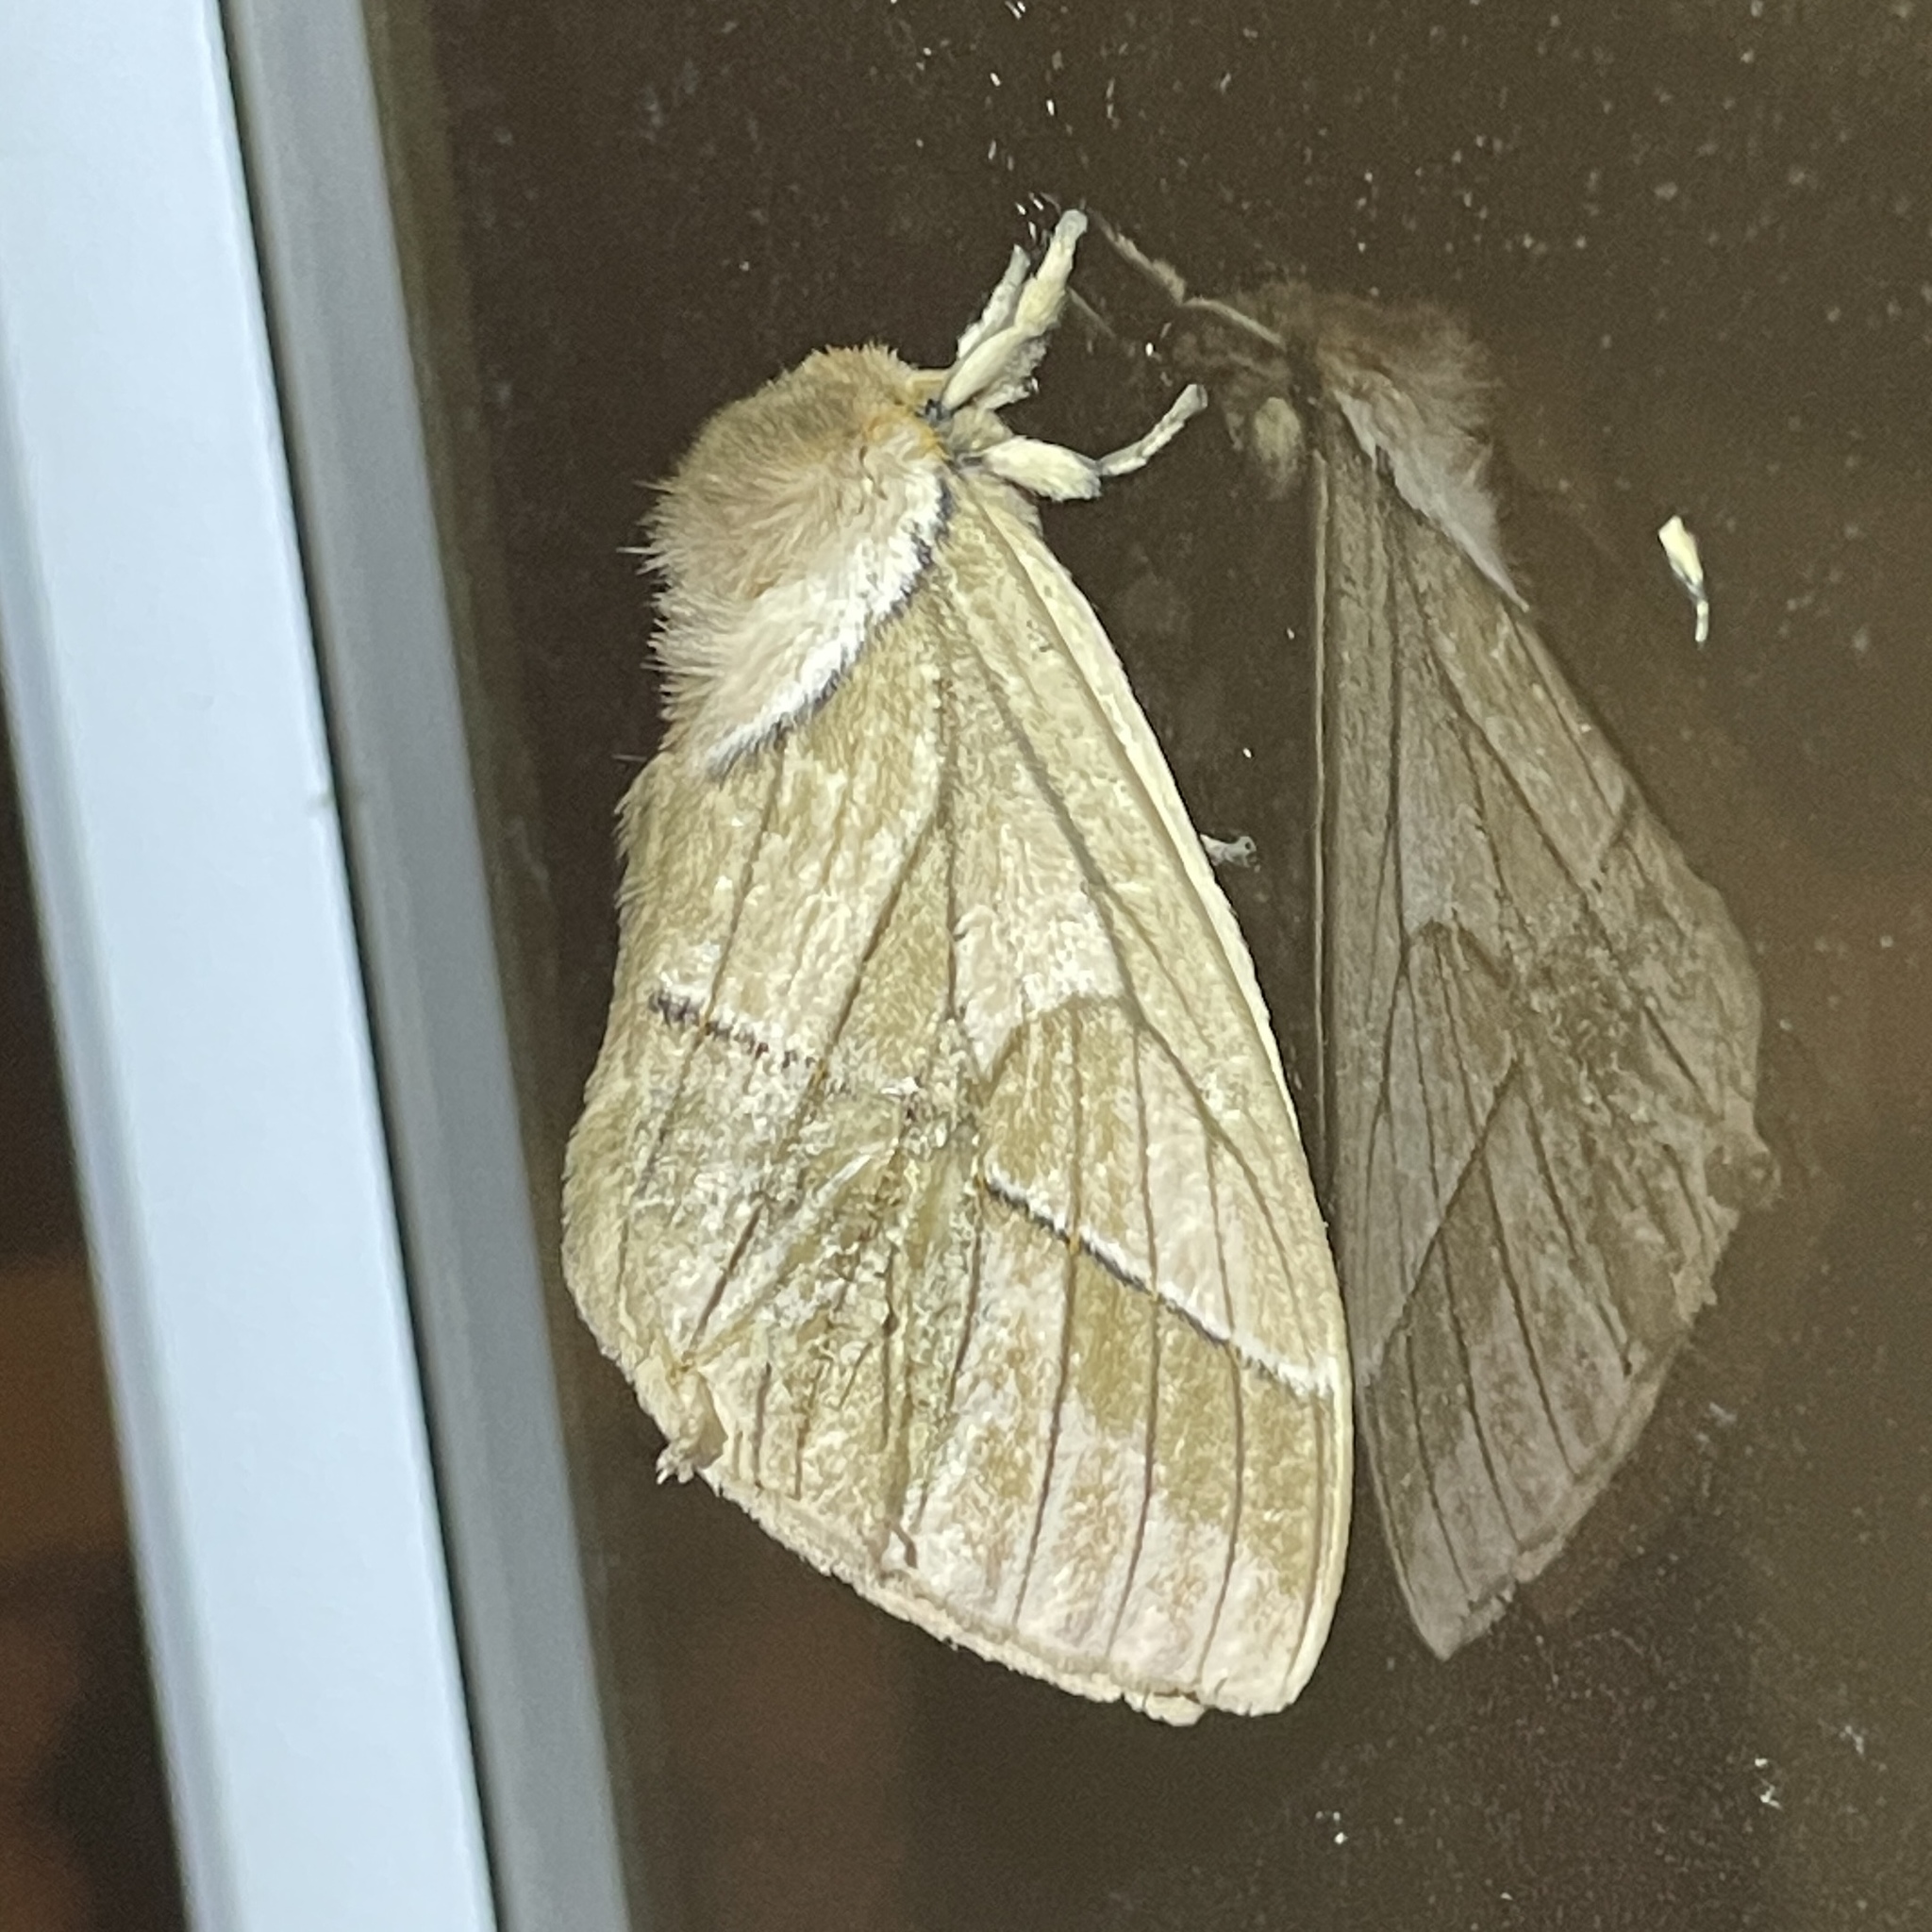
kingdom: Animalia
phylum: Arthropoda
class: Insecta
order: Lepidoptera
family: Saturniidae
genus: Pseudodirphia
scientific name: Pseudodirphia obliqua
